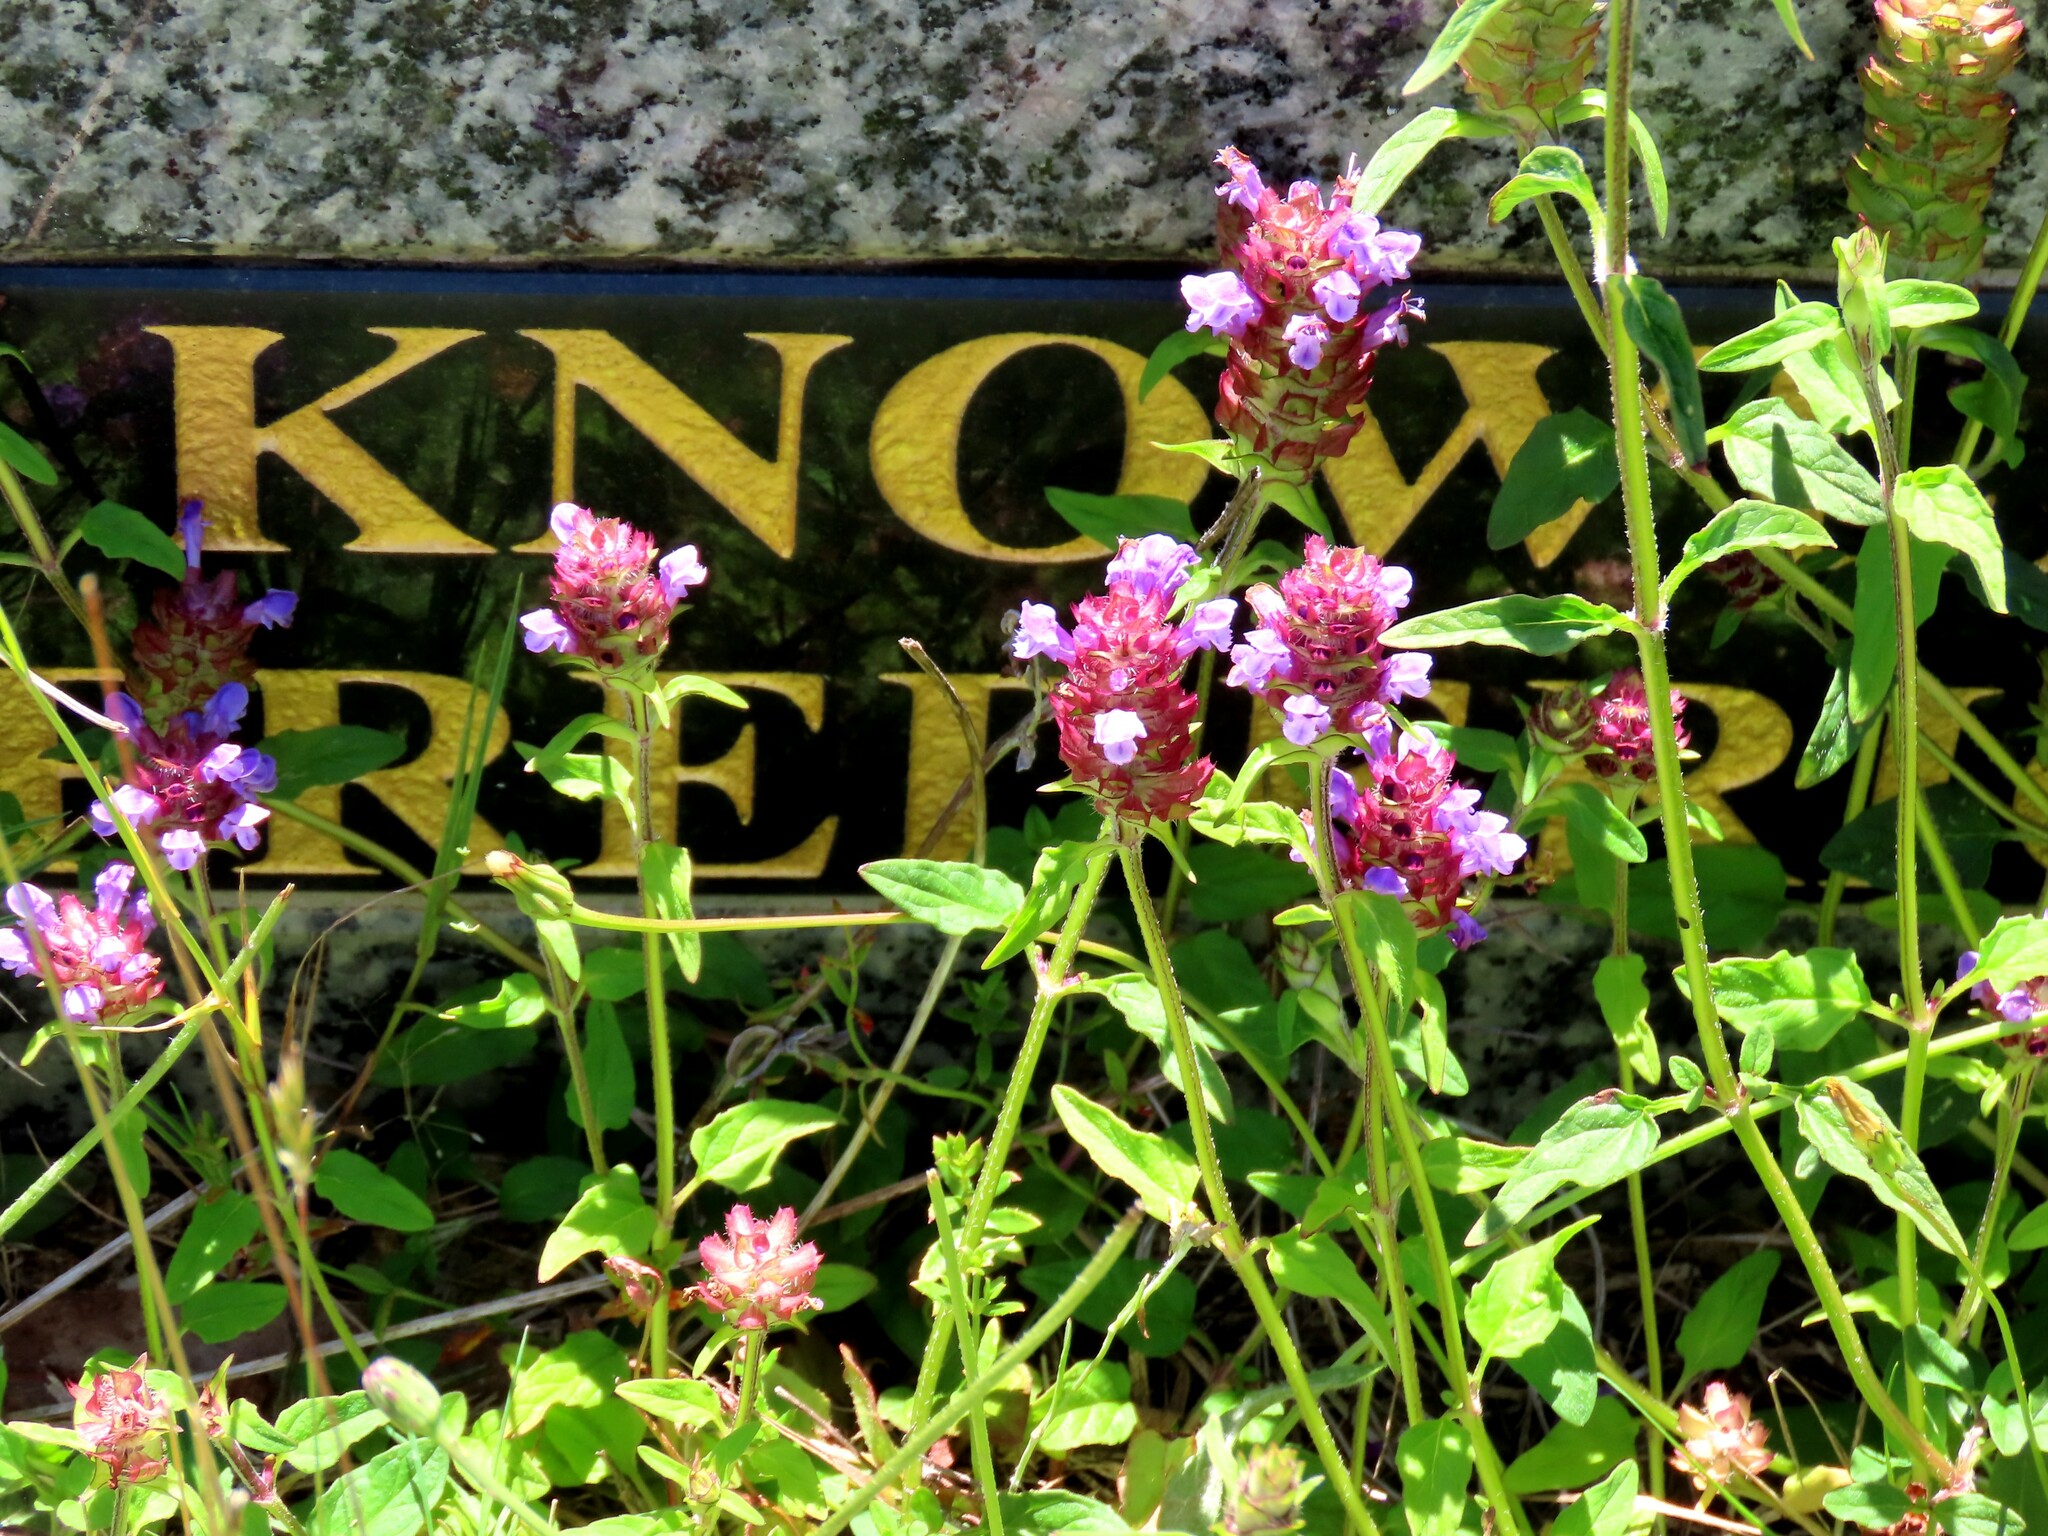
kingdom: Plantae
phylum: Tracheophyta
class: Magnoliopsida
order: Lamiales
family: Lamiaceae
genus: Prunella
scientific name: Prunella vulgaris
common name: Heal-all
